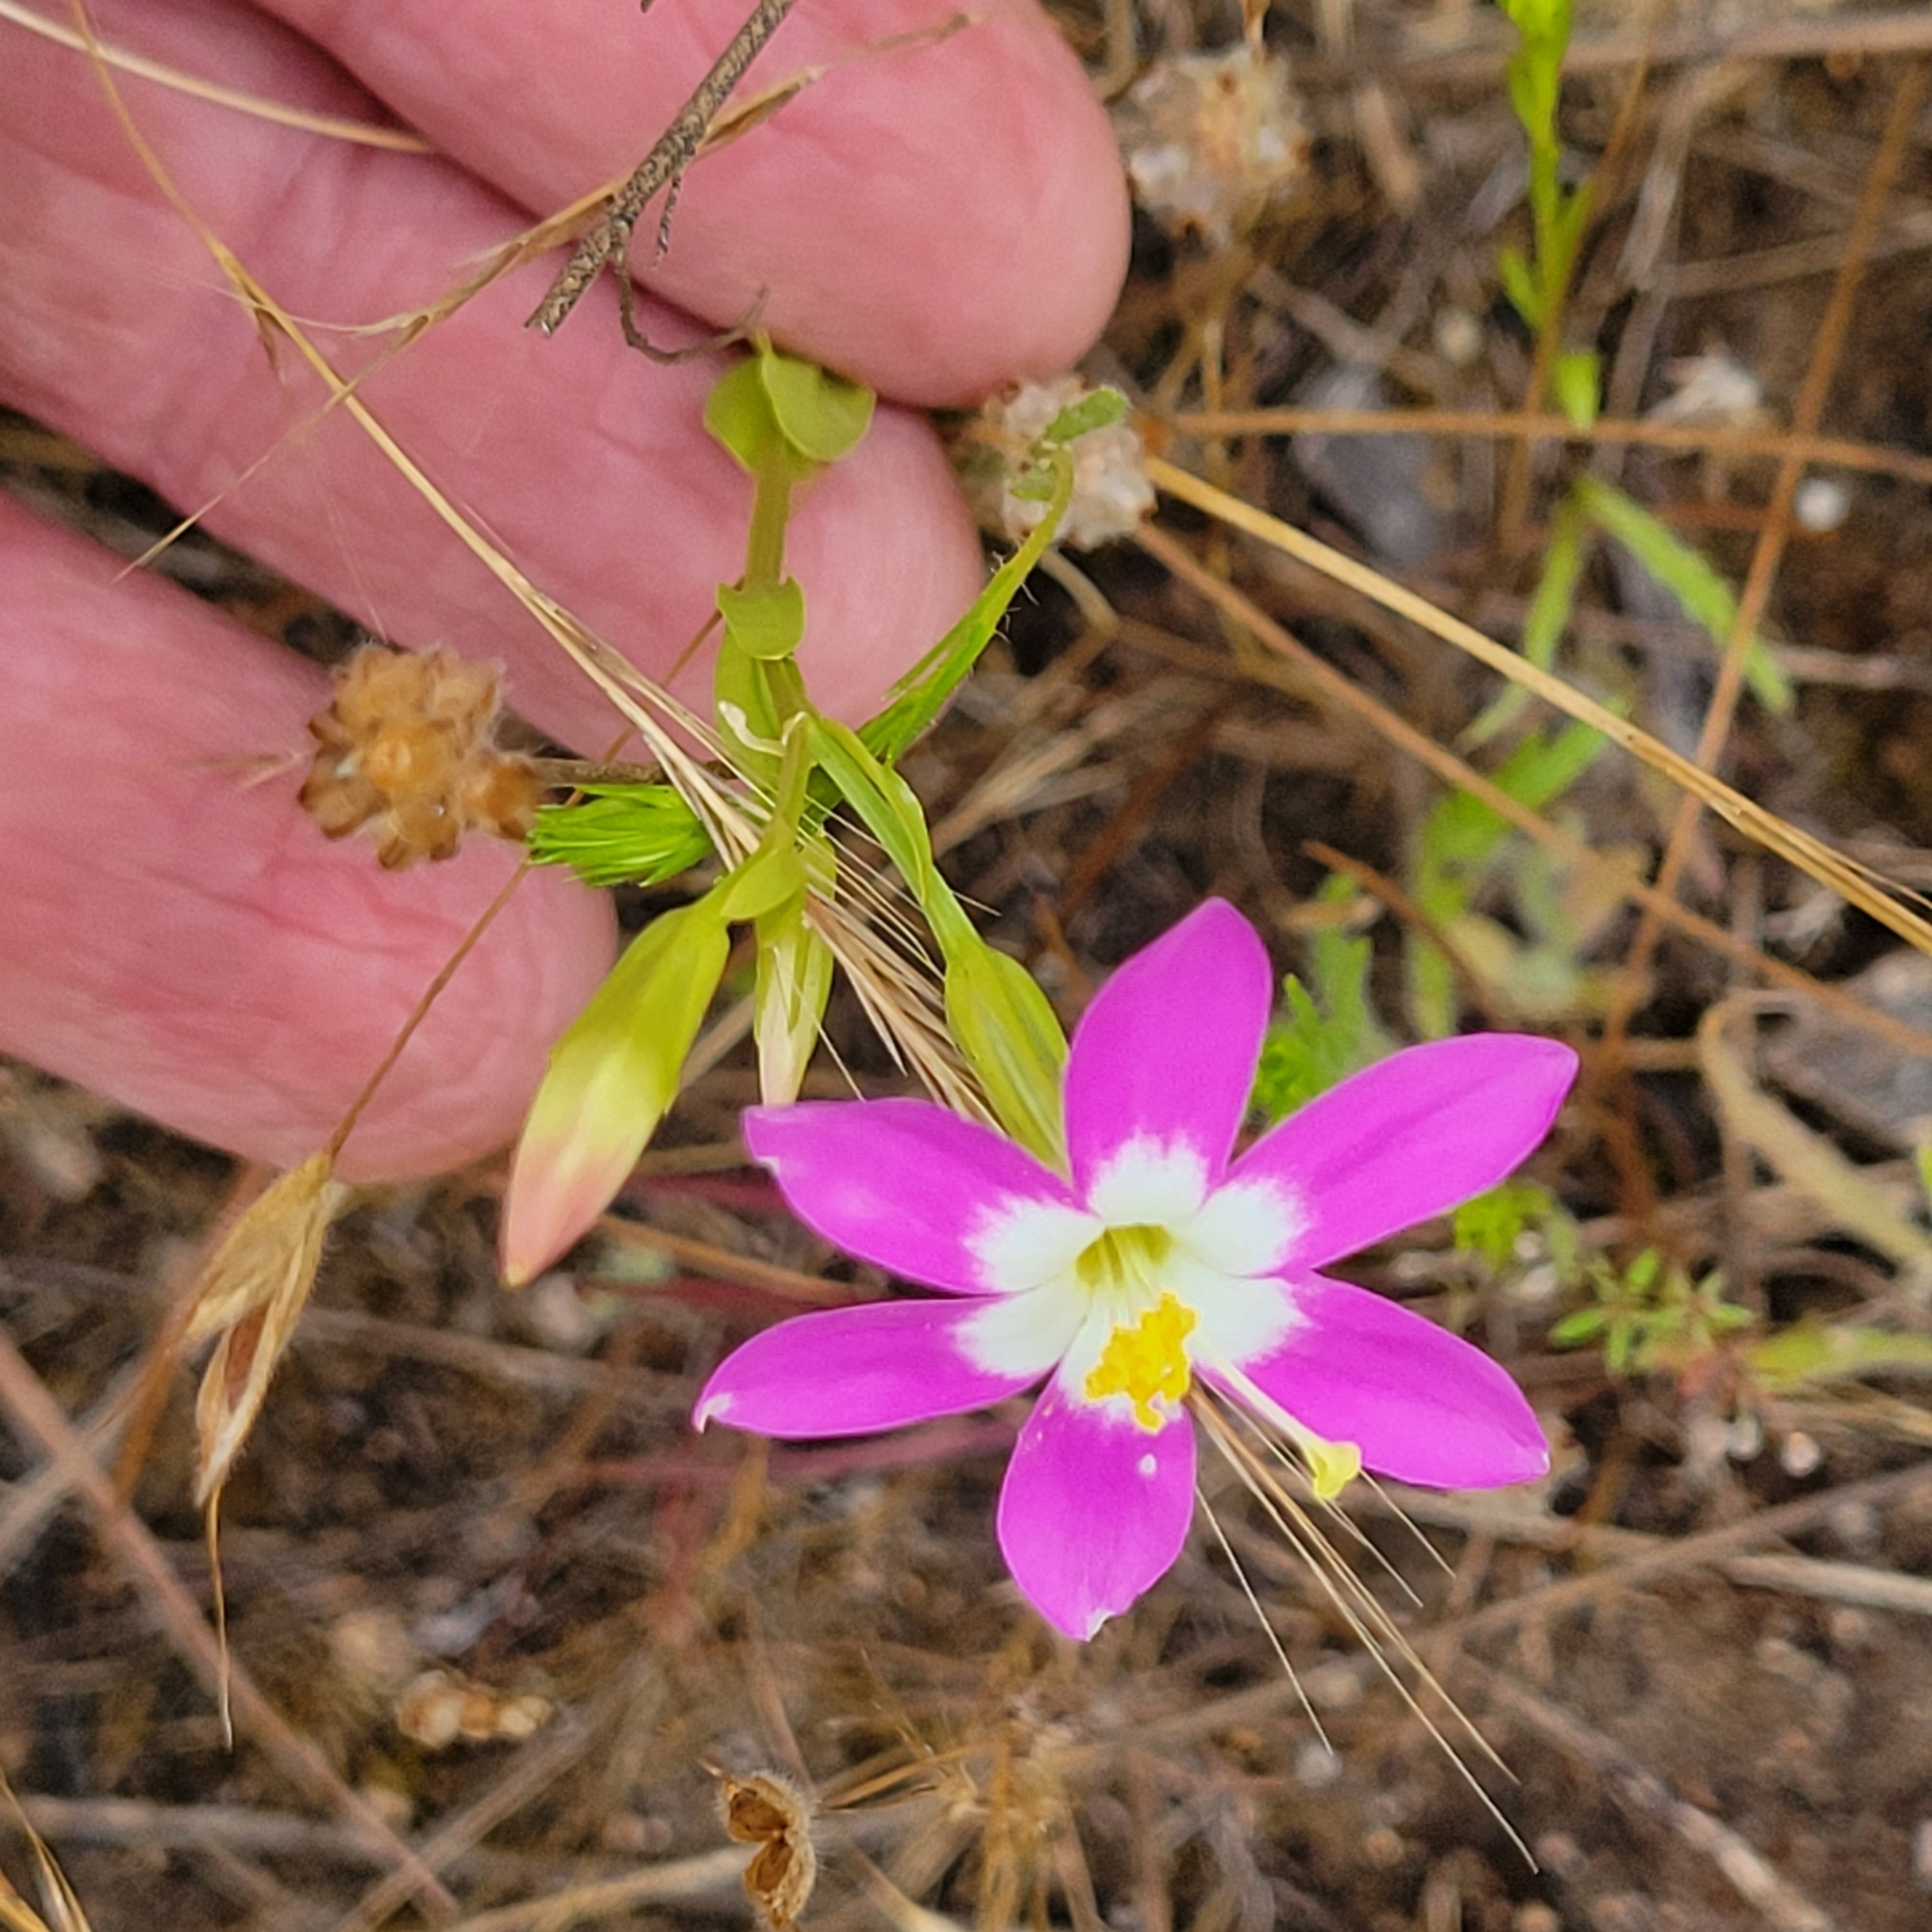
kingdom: Plantae
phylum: Tracheophyta
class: Magnoliopsida
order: Gentianales
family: Gentianaceae
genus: Zeltnera
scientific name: Zeltnera venusta
